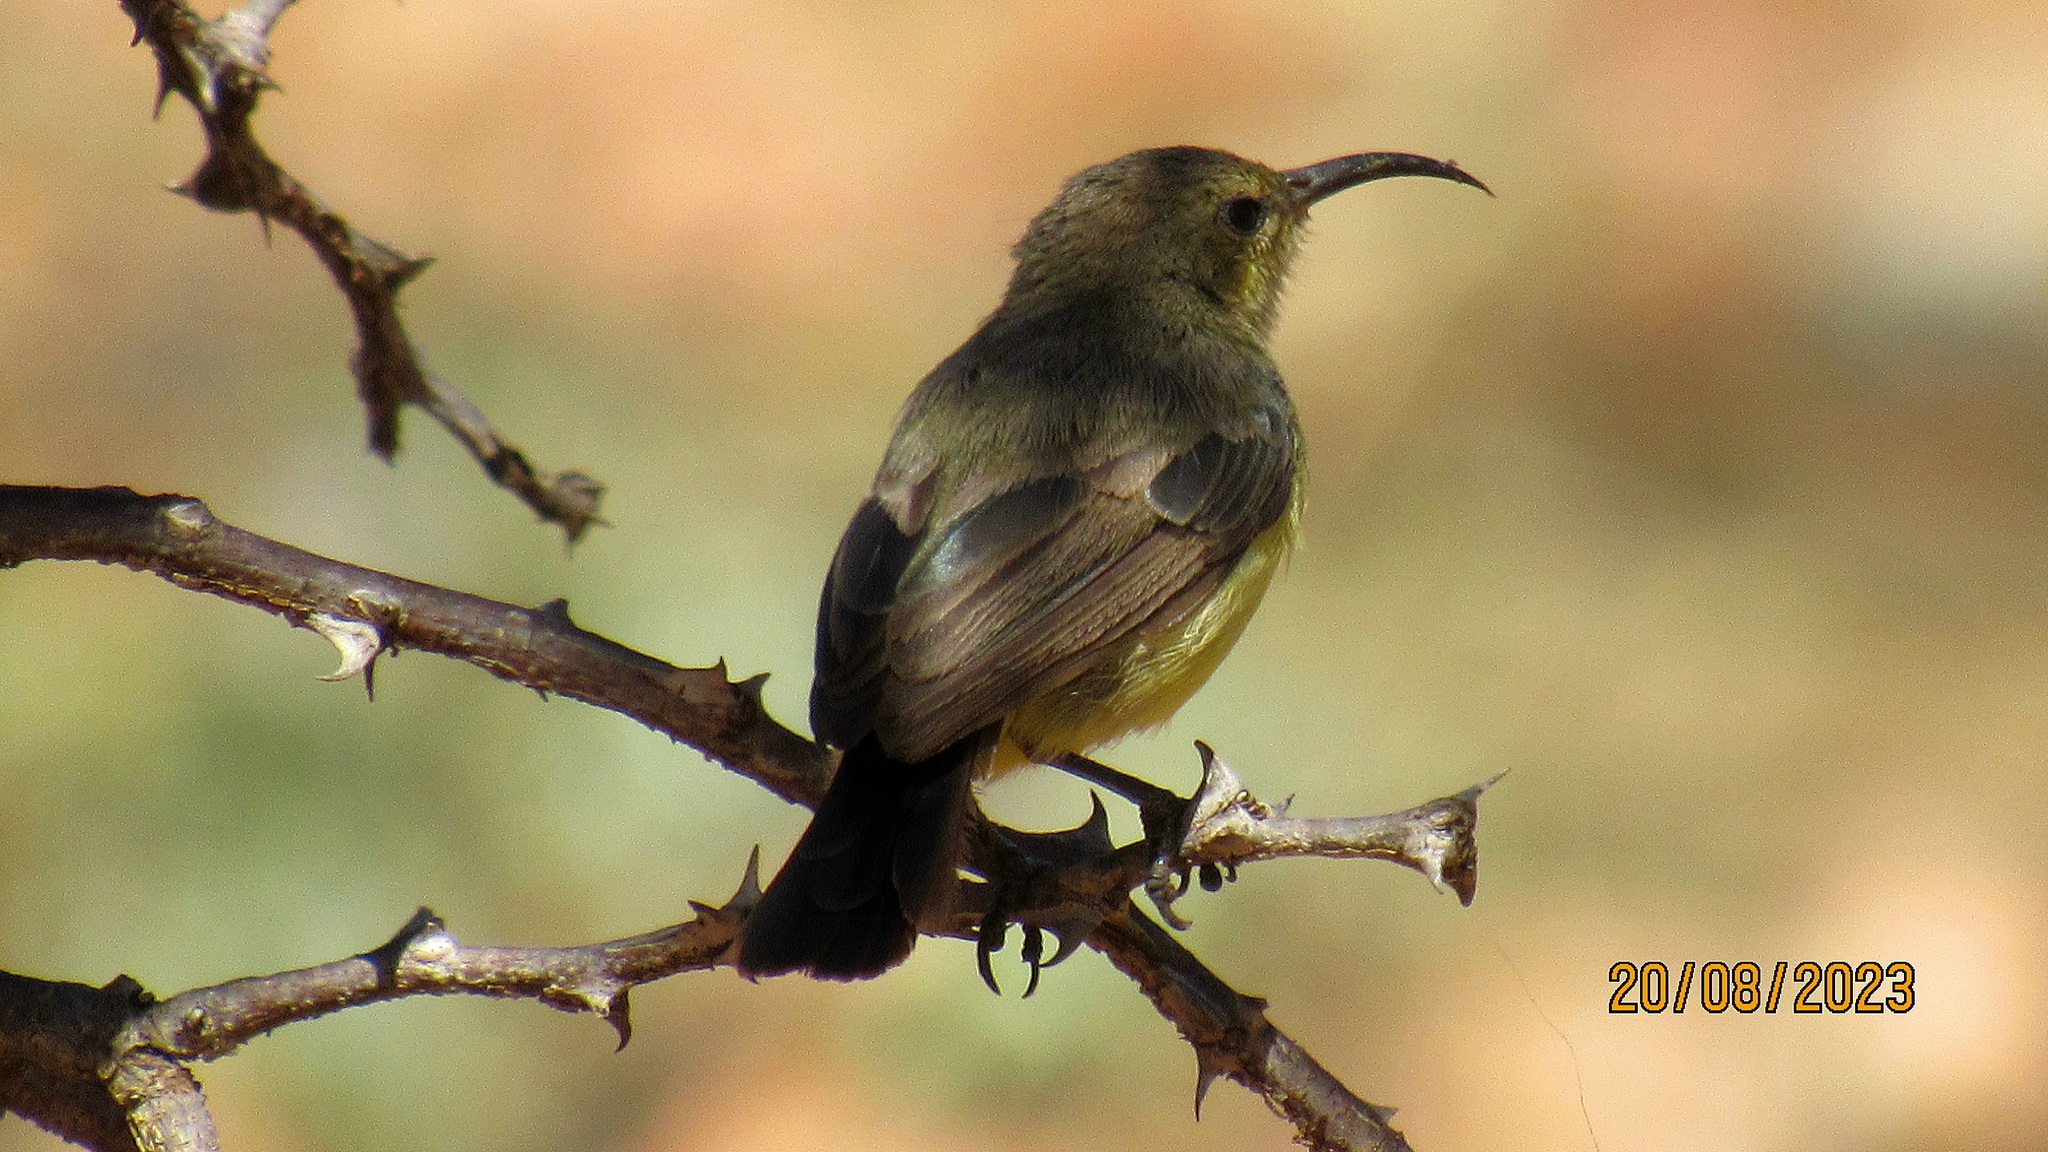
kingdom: Animalia
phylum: Chordata
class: Aves
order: Passeriformes
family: Nectariniidae
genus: Cinnyris
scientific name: Cinnyris venustus
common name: Variable sunbird
